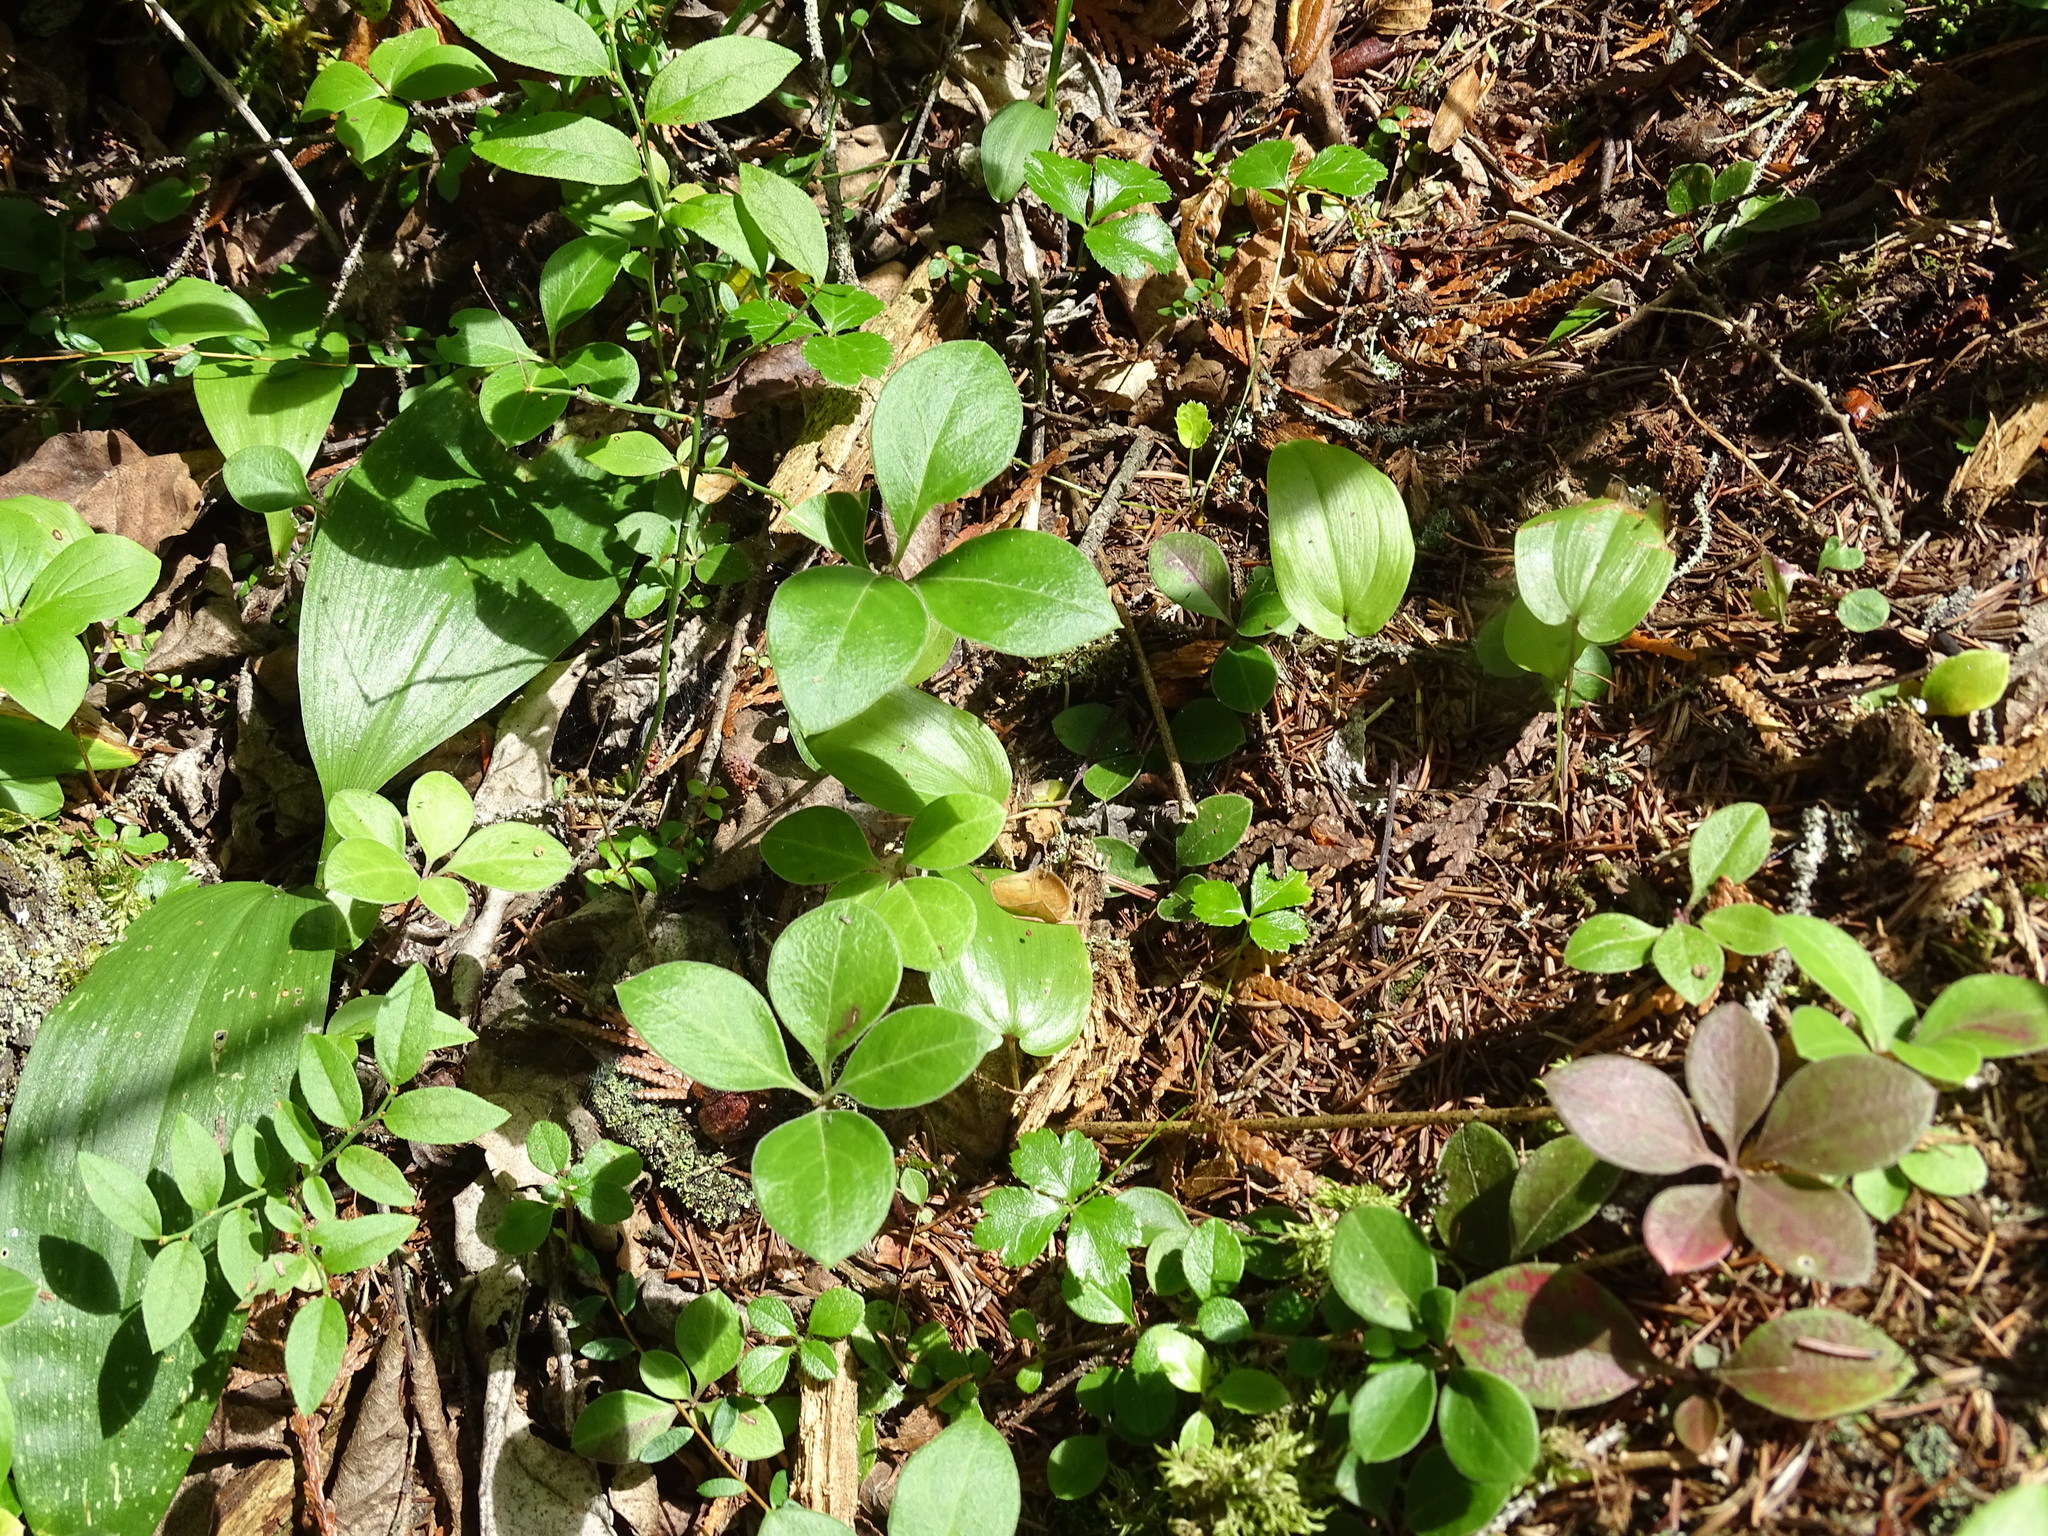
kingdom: Plantae
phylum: Tracheophyta
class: Magnoliopsida
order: Fabales
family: Polygalaceae
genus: Polygaloides
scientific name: Polygaloides paucifolia
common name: Bird-on-the-wing
